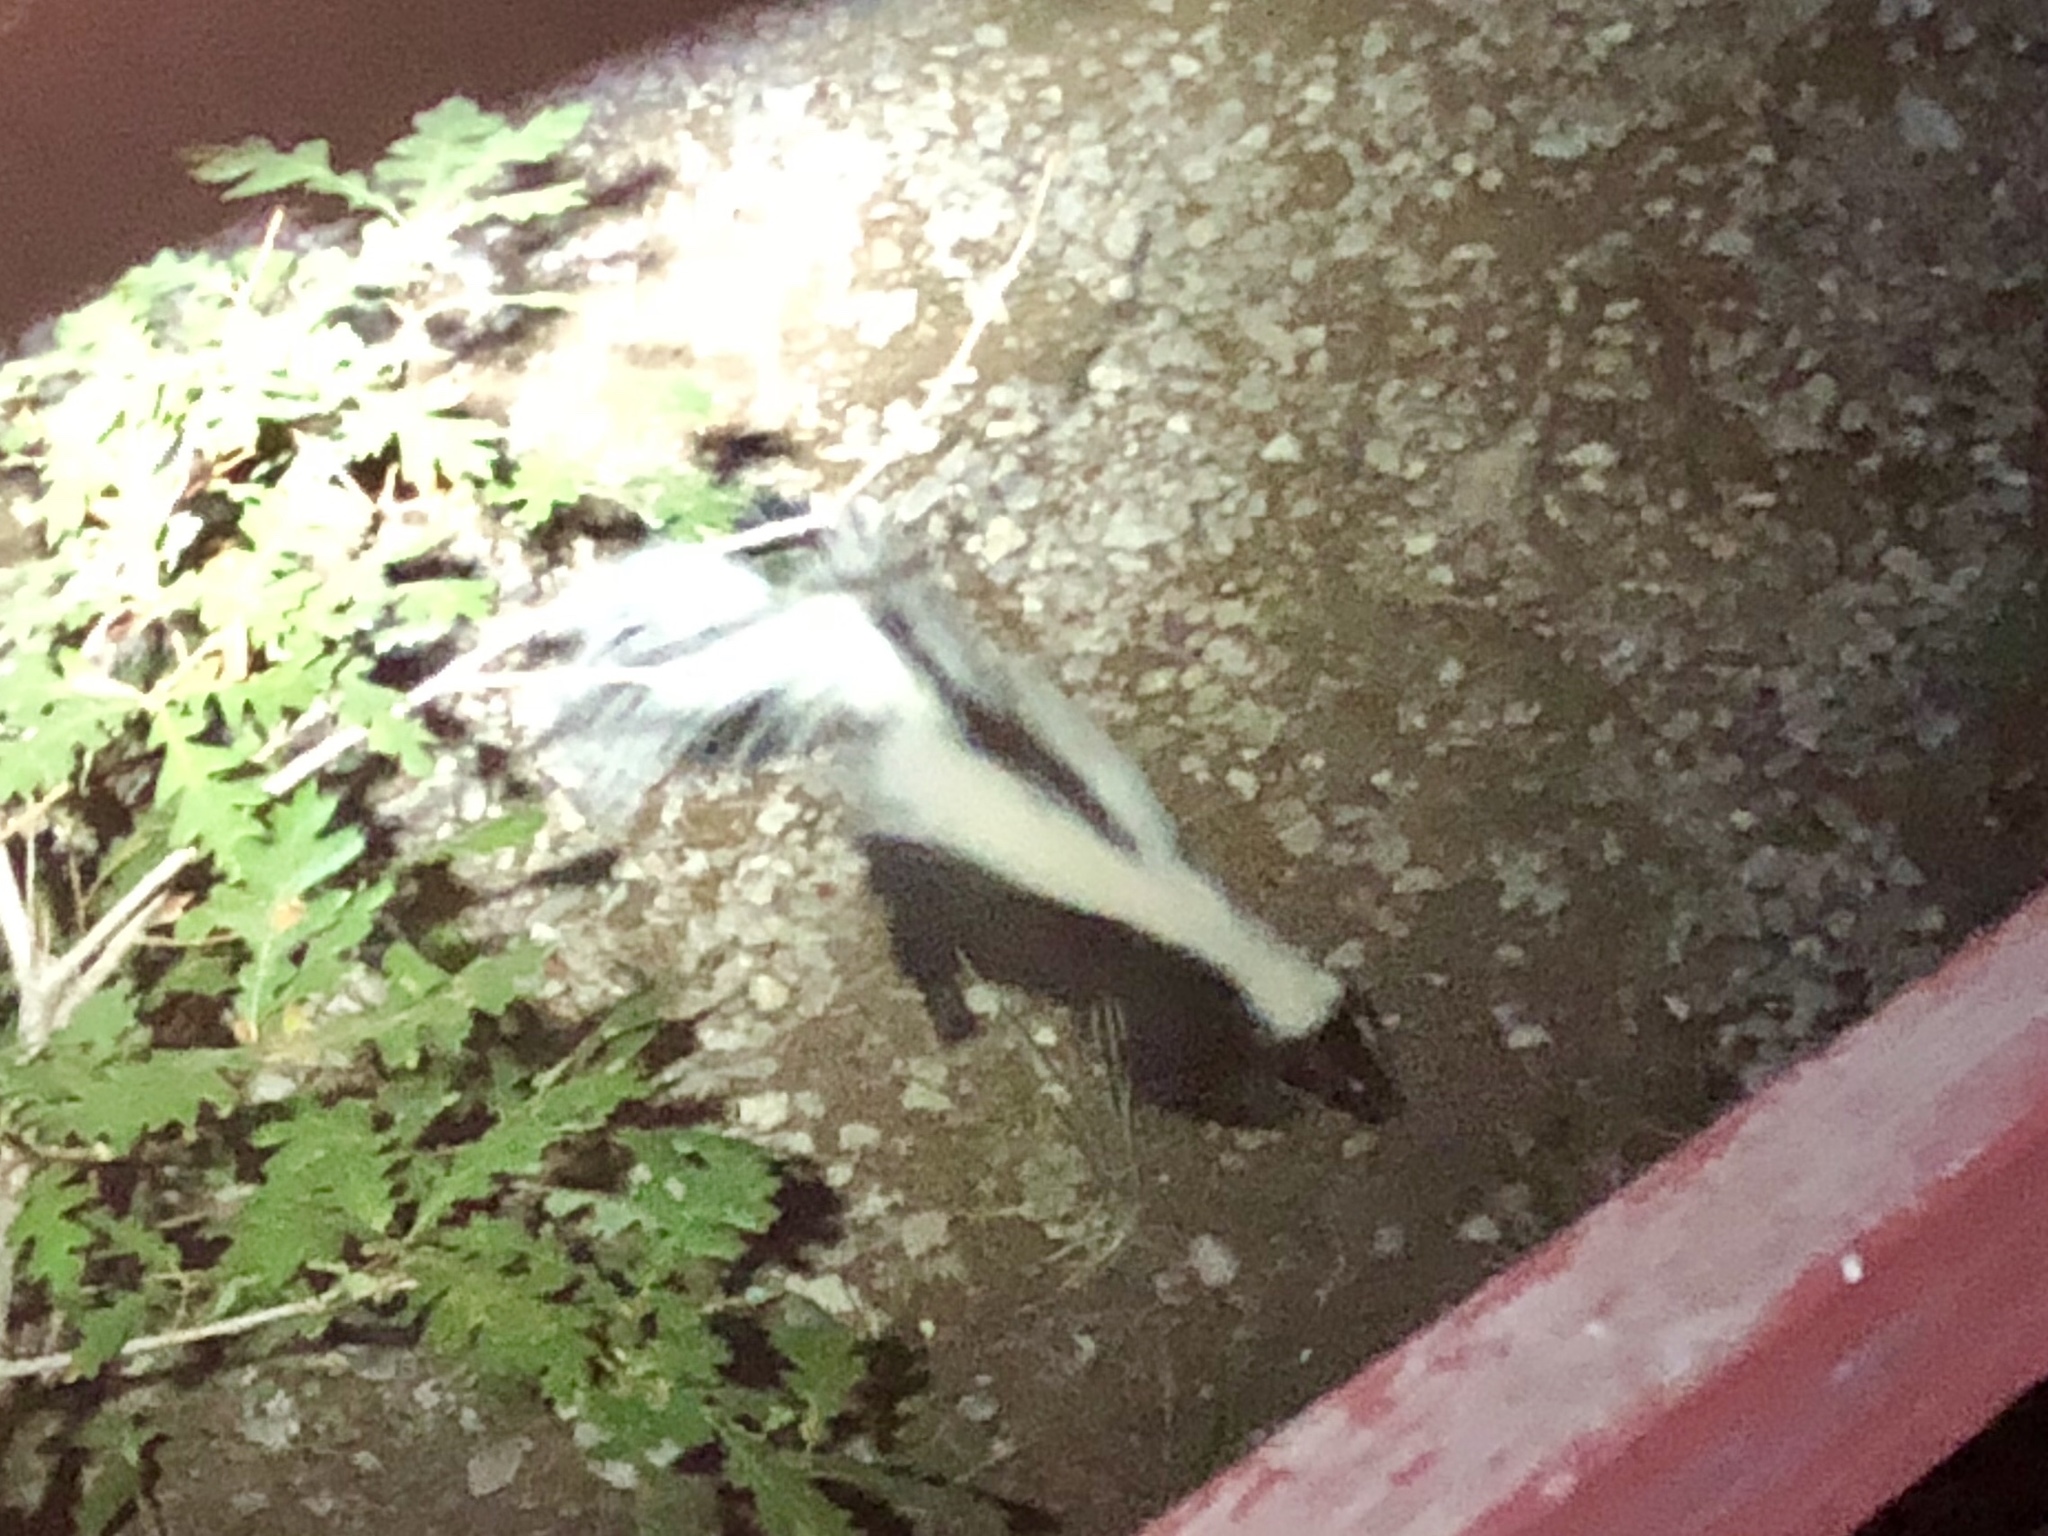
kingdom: Animalia
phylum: Chordata
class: Mammalia
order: Carnivora
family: Mephitidae
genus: Mephitis
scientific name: Mephitis mephitis
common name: Striped skunk
